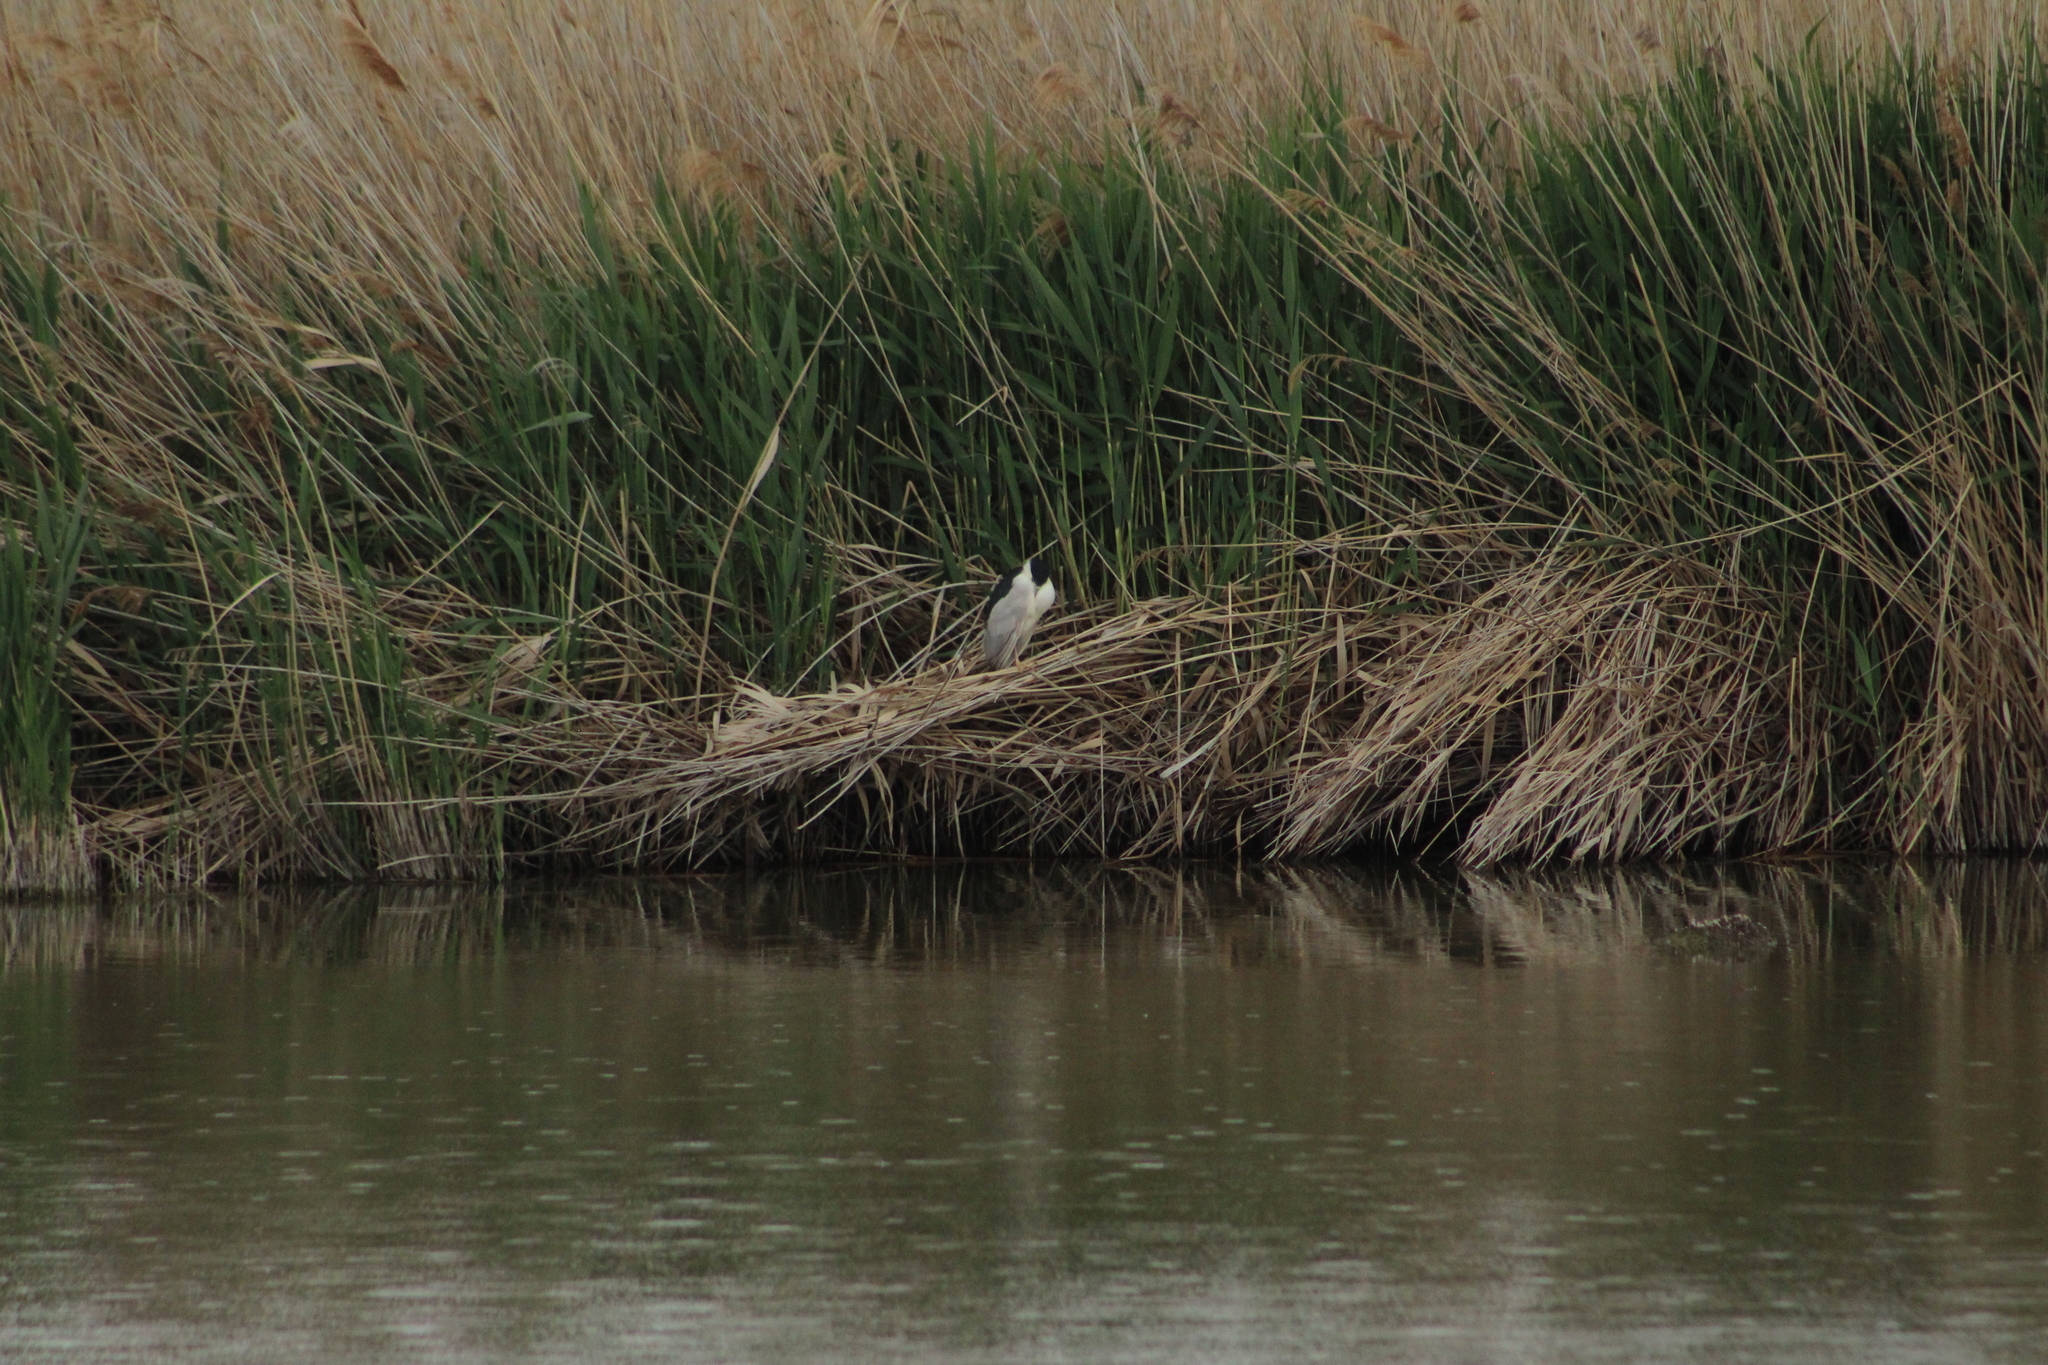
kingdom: Animalia
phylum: Chordata
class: Aves
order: Pelecaniformes
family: Ardeidae
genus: Nycticorax
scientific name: Nycticorax nycticorax
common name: Black-crowned night heron
